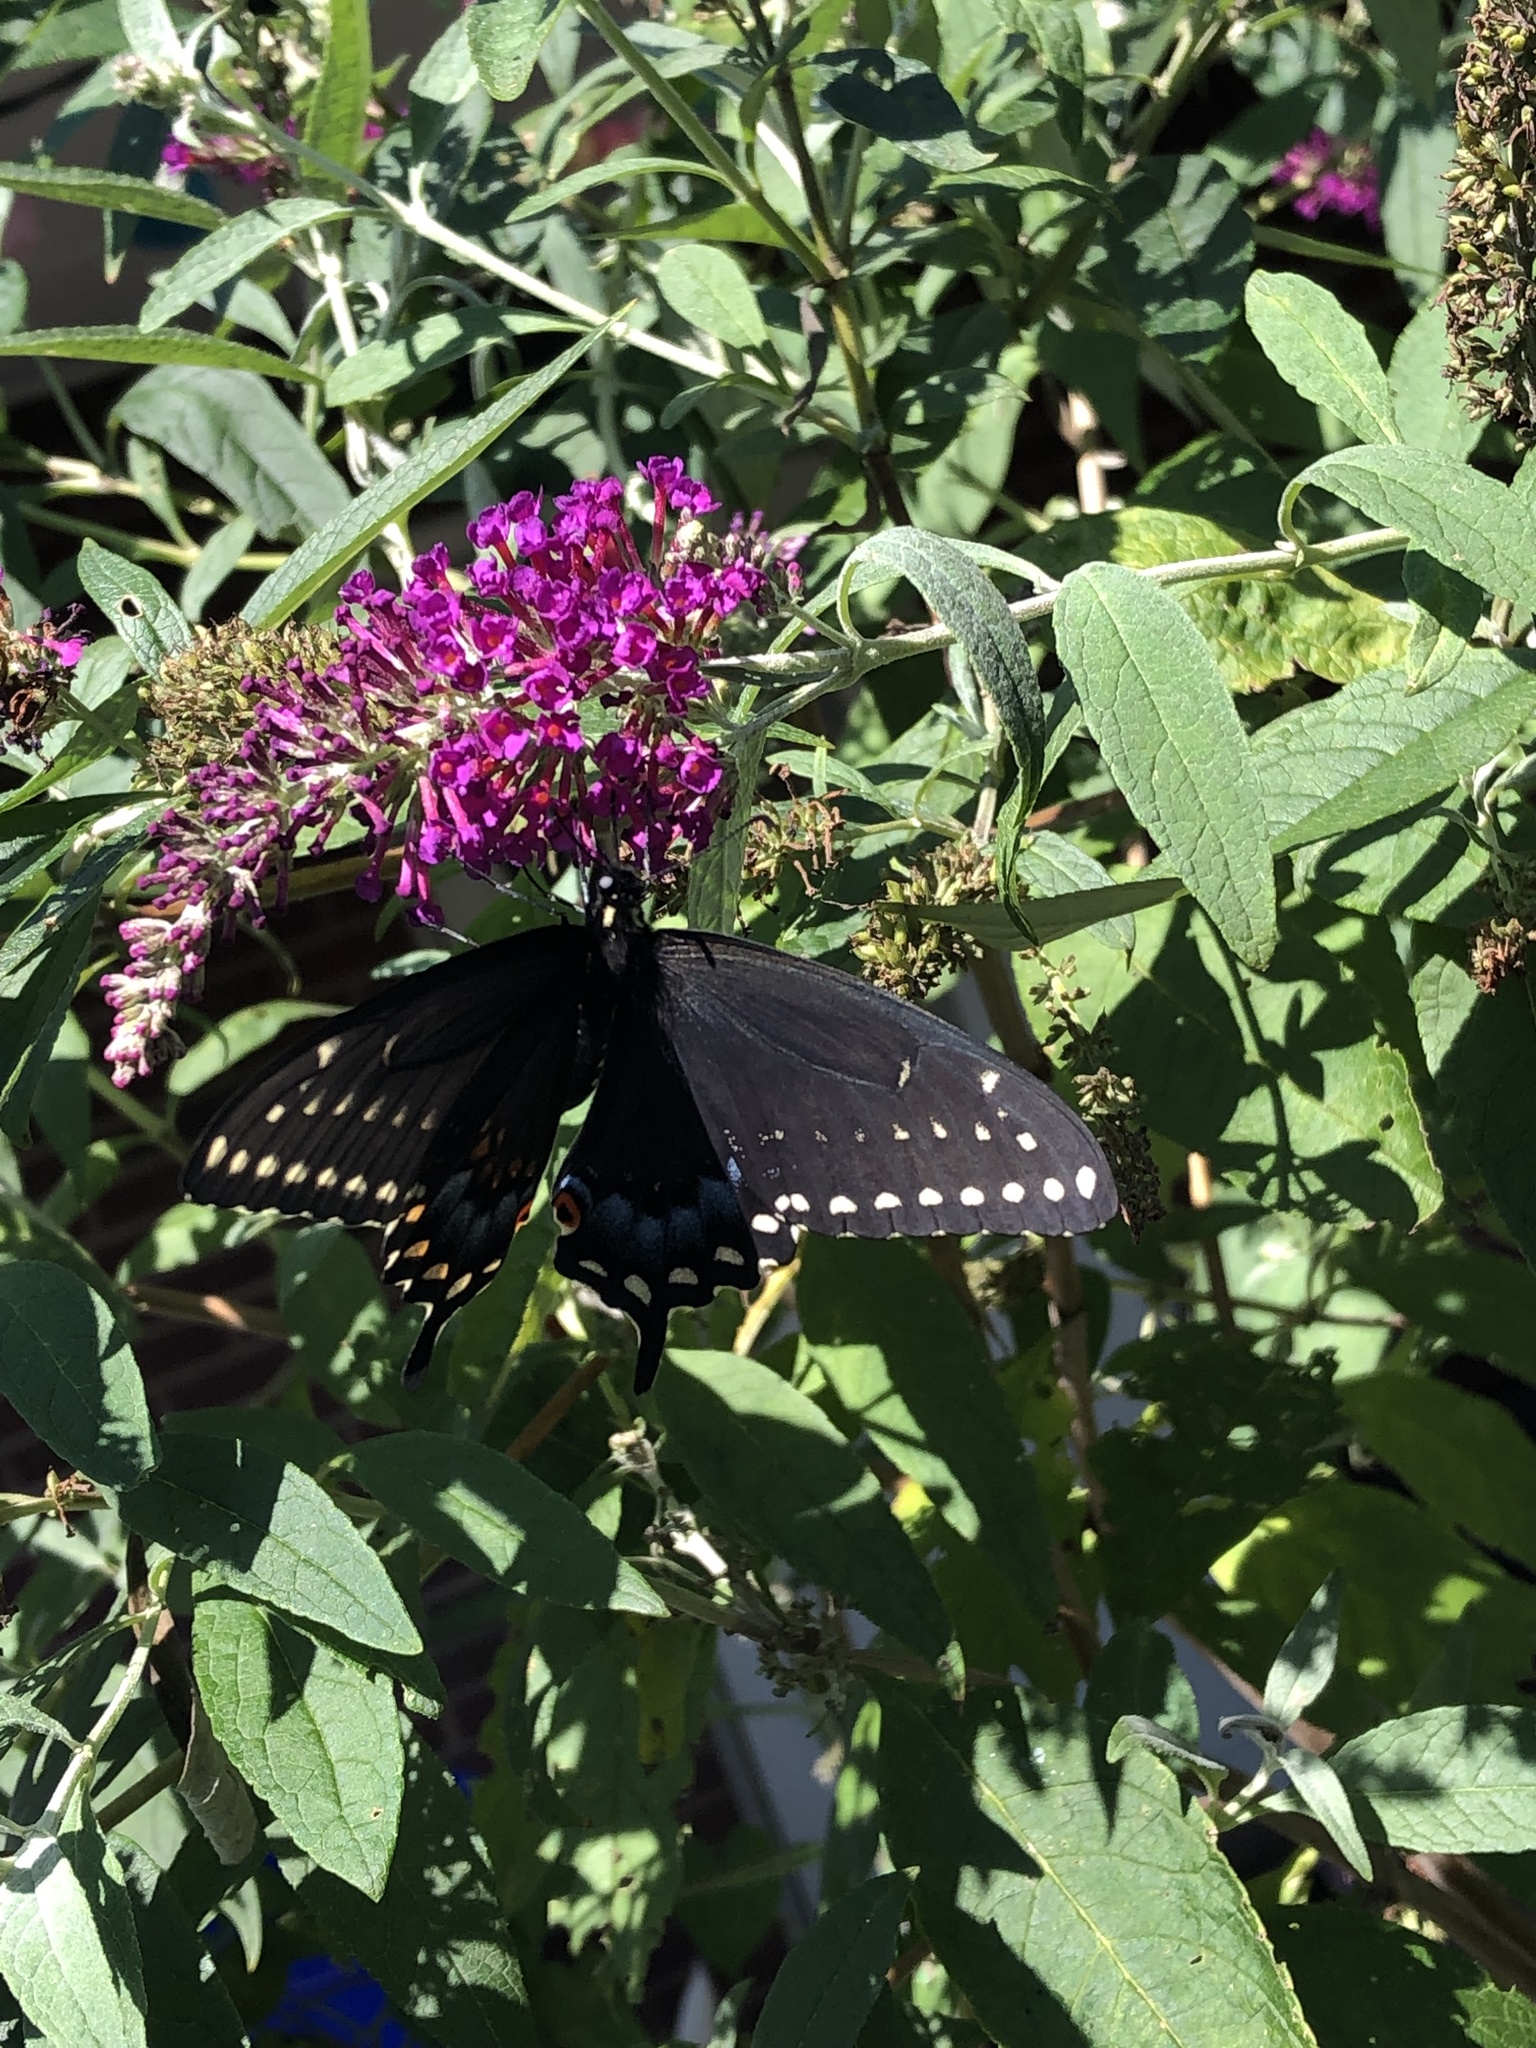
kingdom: Animalia
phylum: Arthropoda
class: Insecta
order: Lepidoptera
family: Papilionidae
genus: Papilio
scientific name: Papilio polyxenes
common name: Black swallowtail
